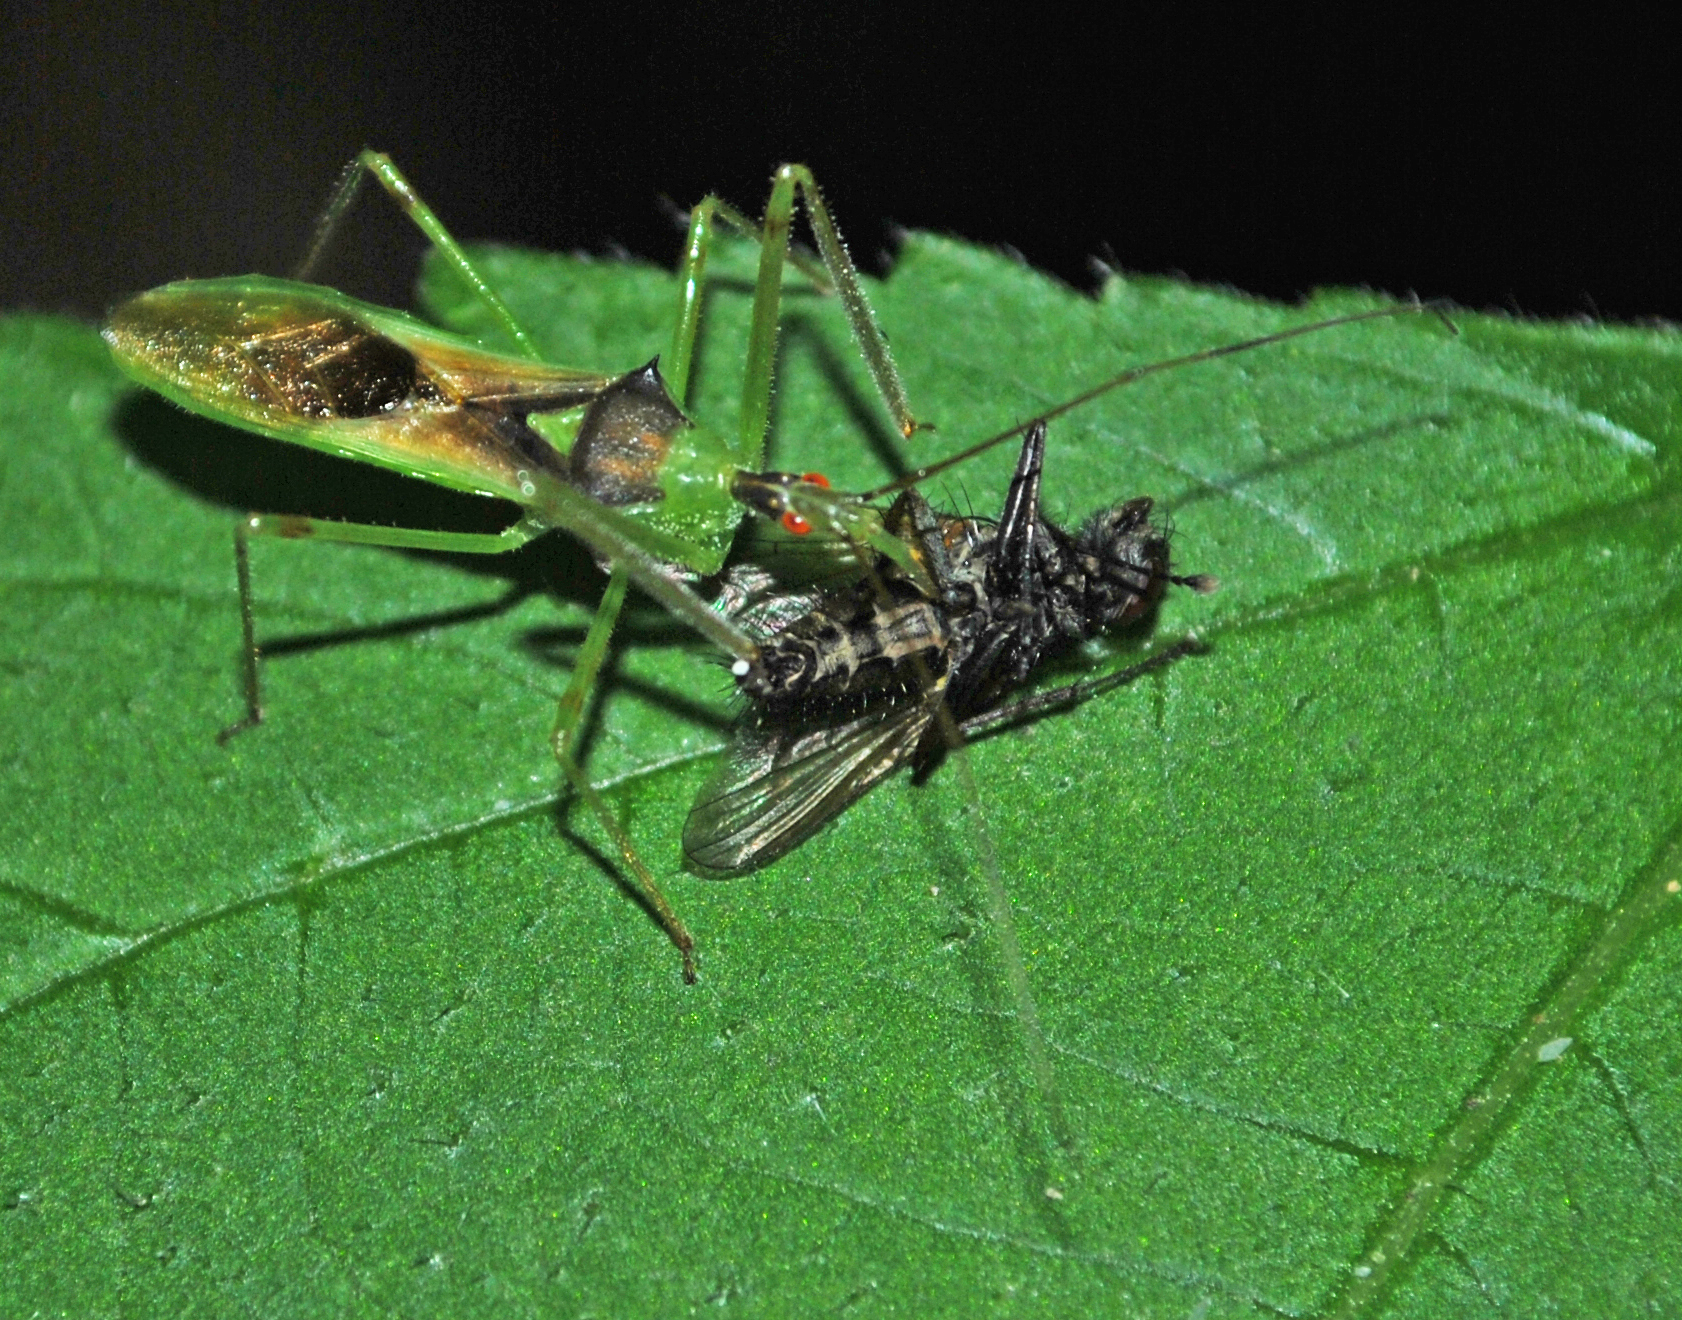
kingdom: Animalia
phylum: Arthropoda
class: Insecta
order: Hemiptera
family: Reduviidae
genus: Zelus
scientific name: Zelus luridus
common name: Pale green assassin bug
